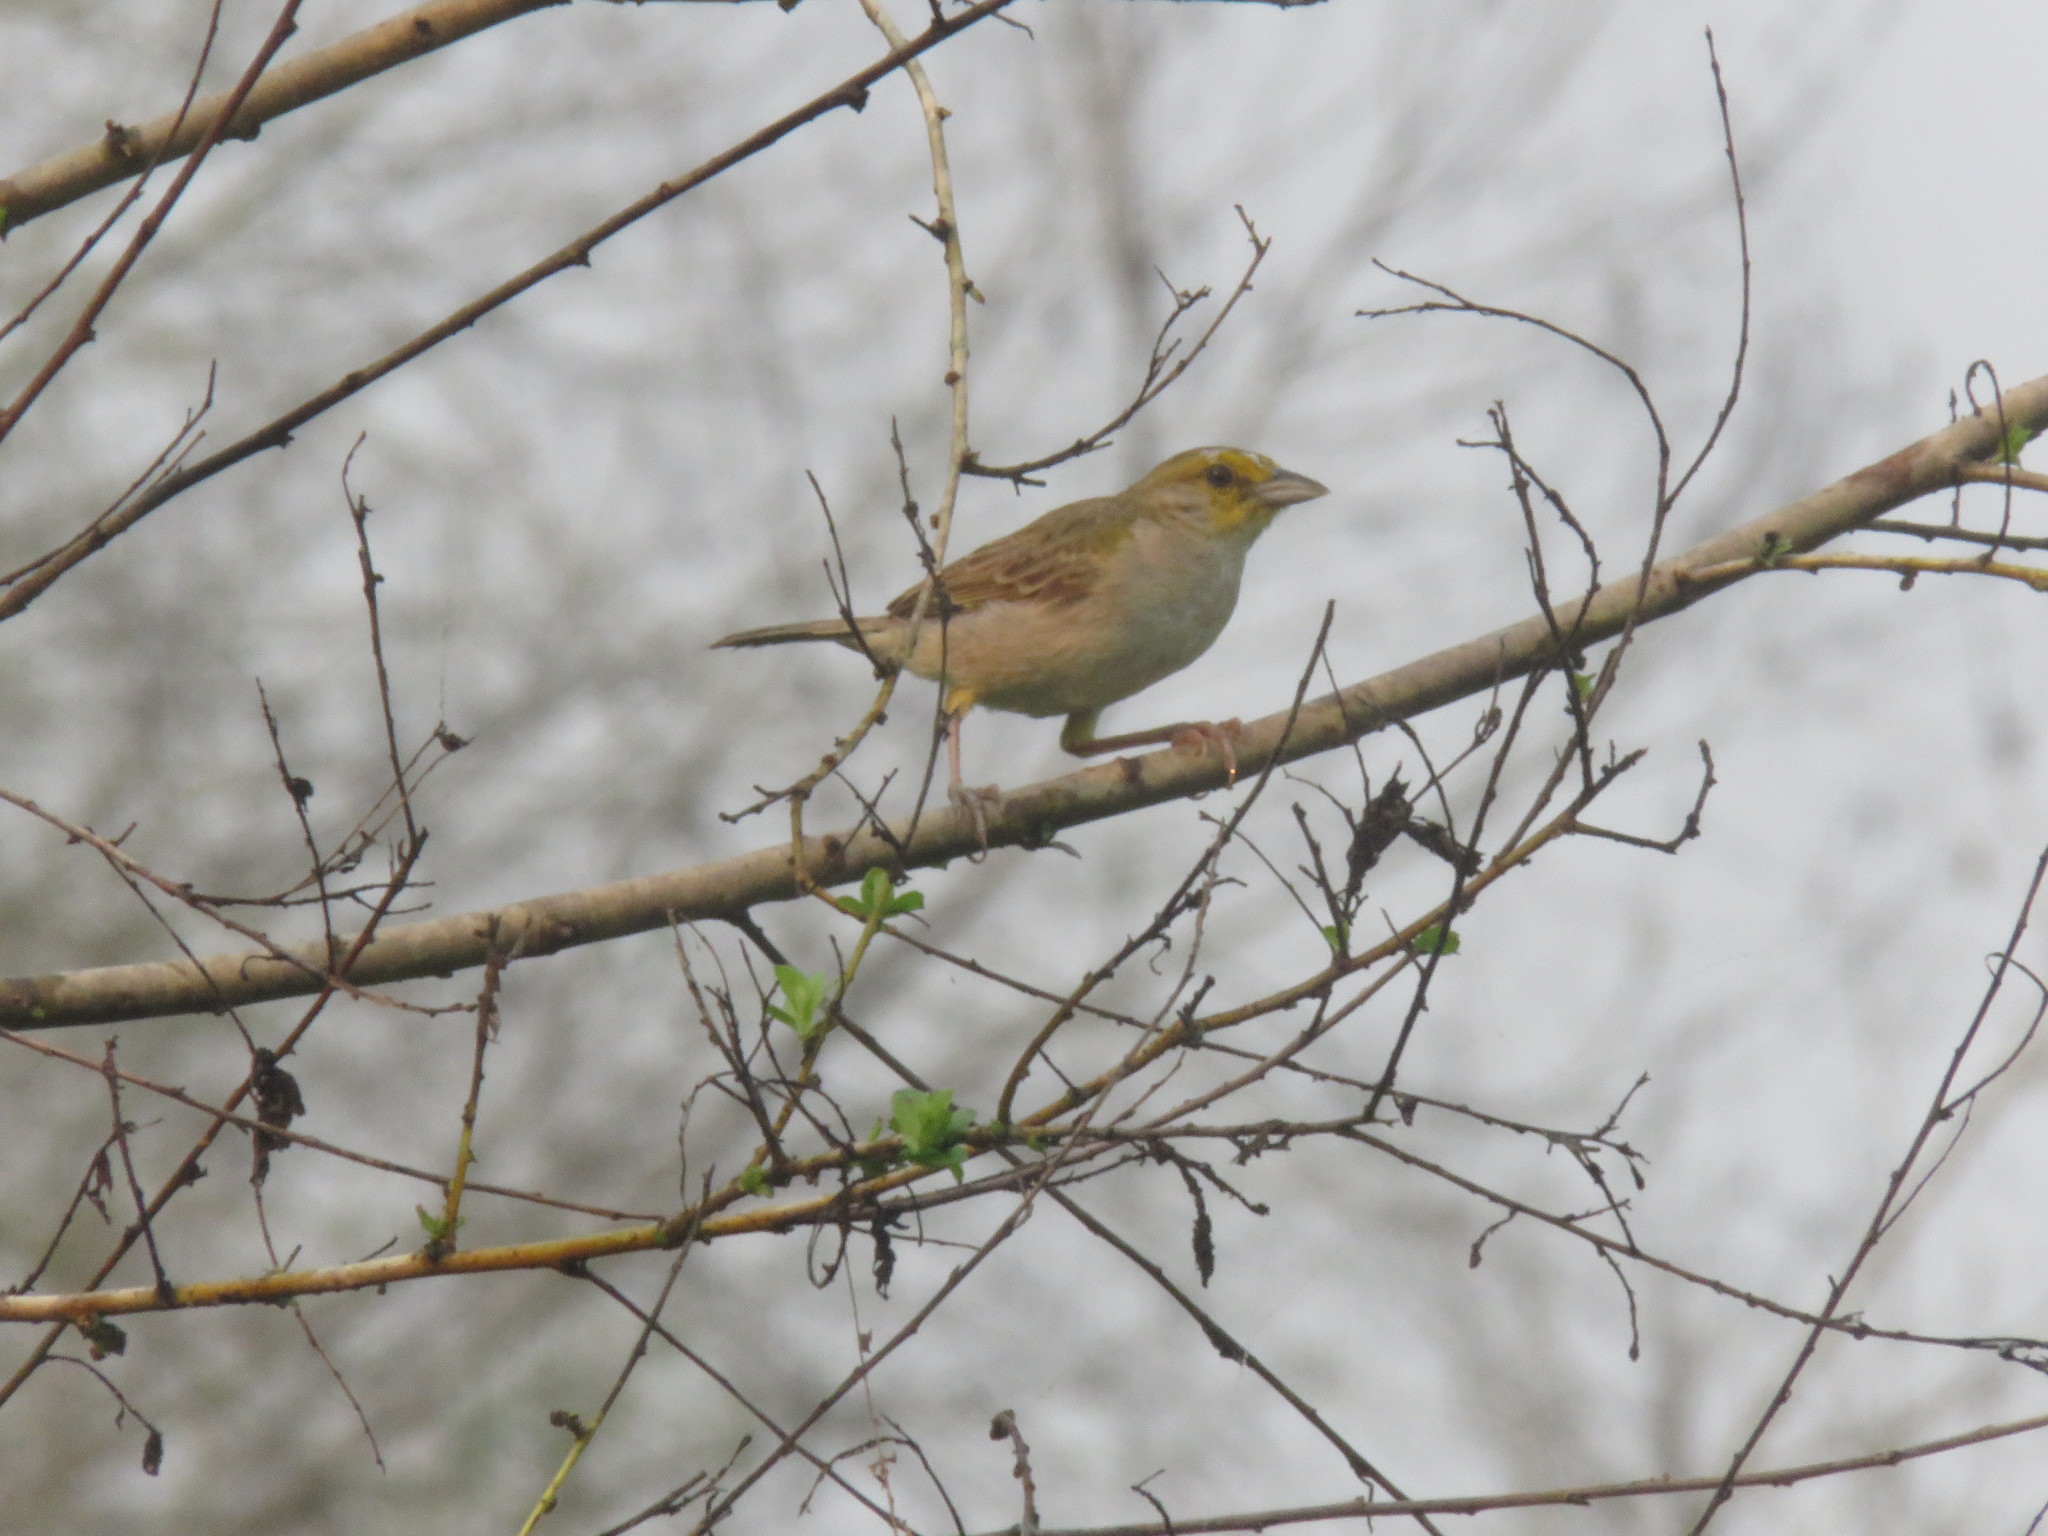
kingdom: Animalia
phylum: Chordata
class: Aves
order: Passeriformes
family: Passerellidae
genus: Ammodramus
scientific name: Ammodramus aurifrons
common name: Yellow-browed sparrow
